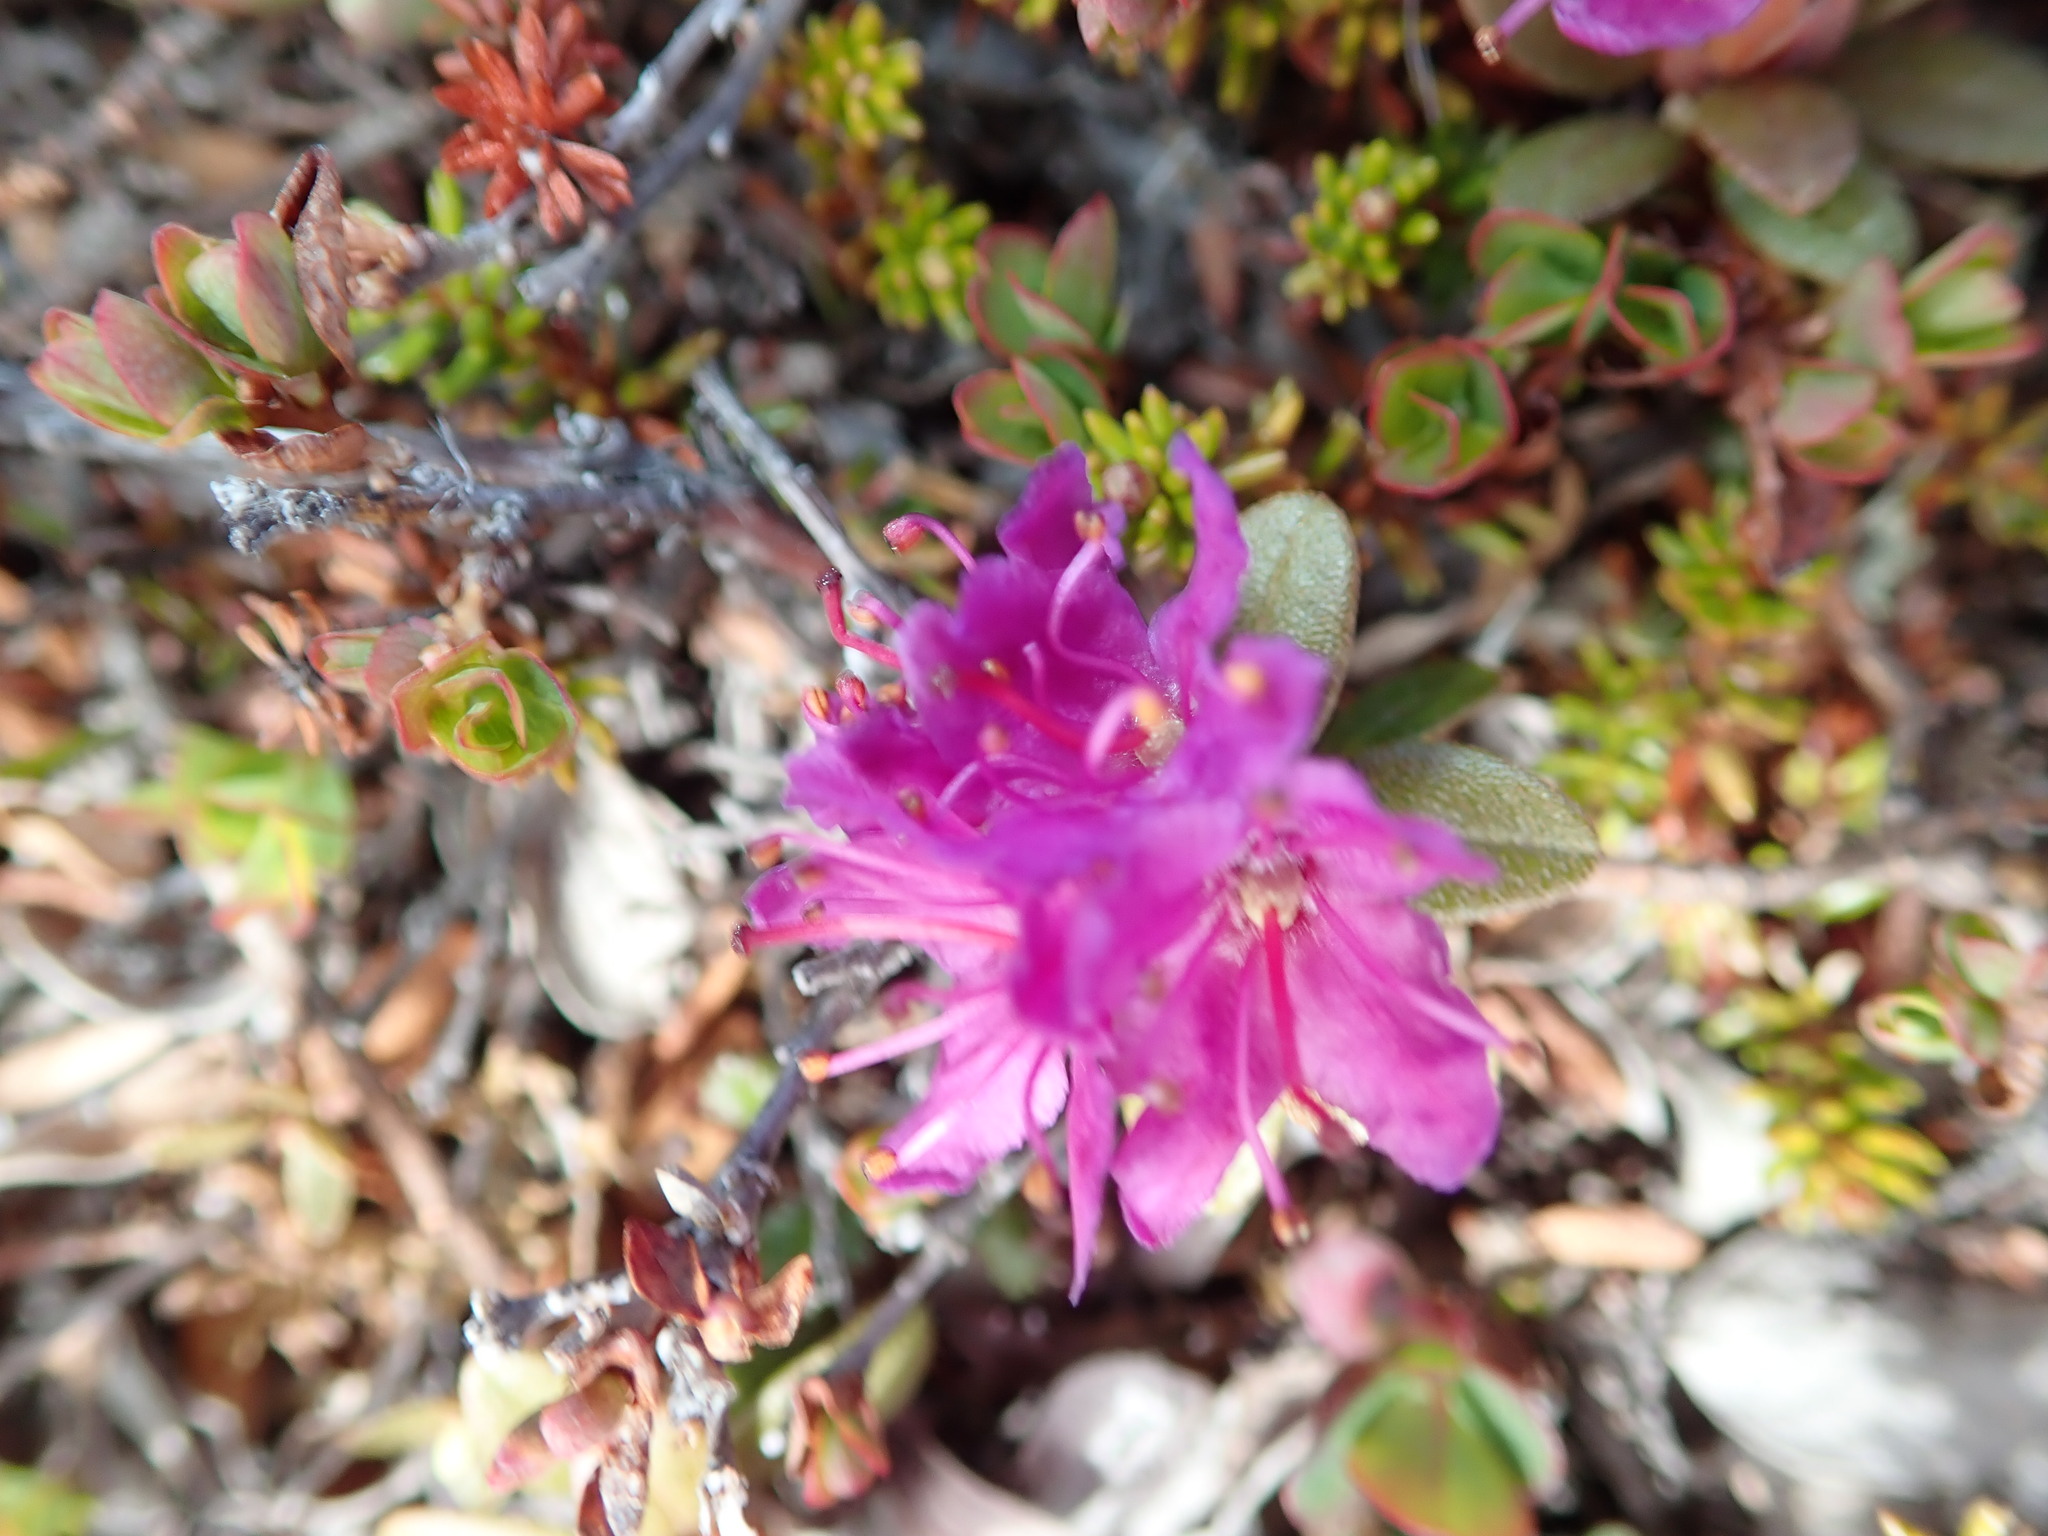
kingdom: Plantae
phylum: Tracheophyta
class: Magnoliopsida
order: Ericales
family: Ericaceae
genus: Rhododendron
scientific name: Rhododendron lapponicum
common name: Lapland rhododendron
